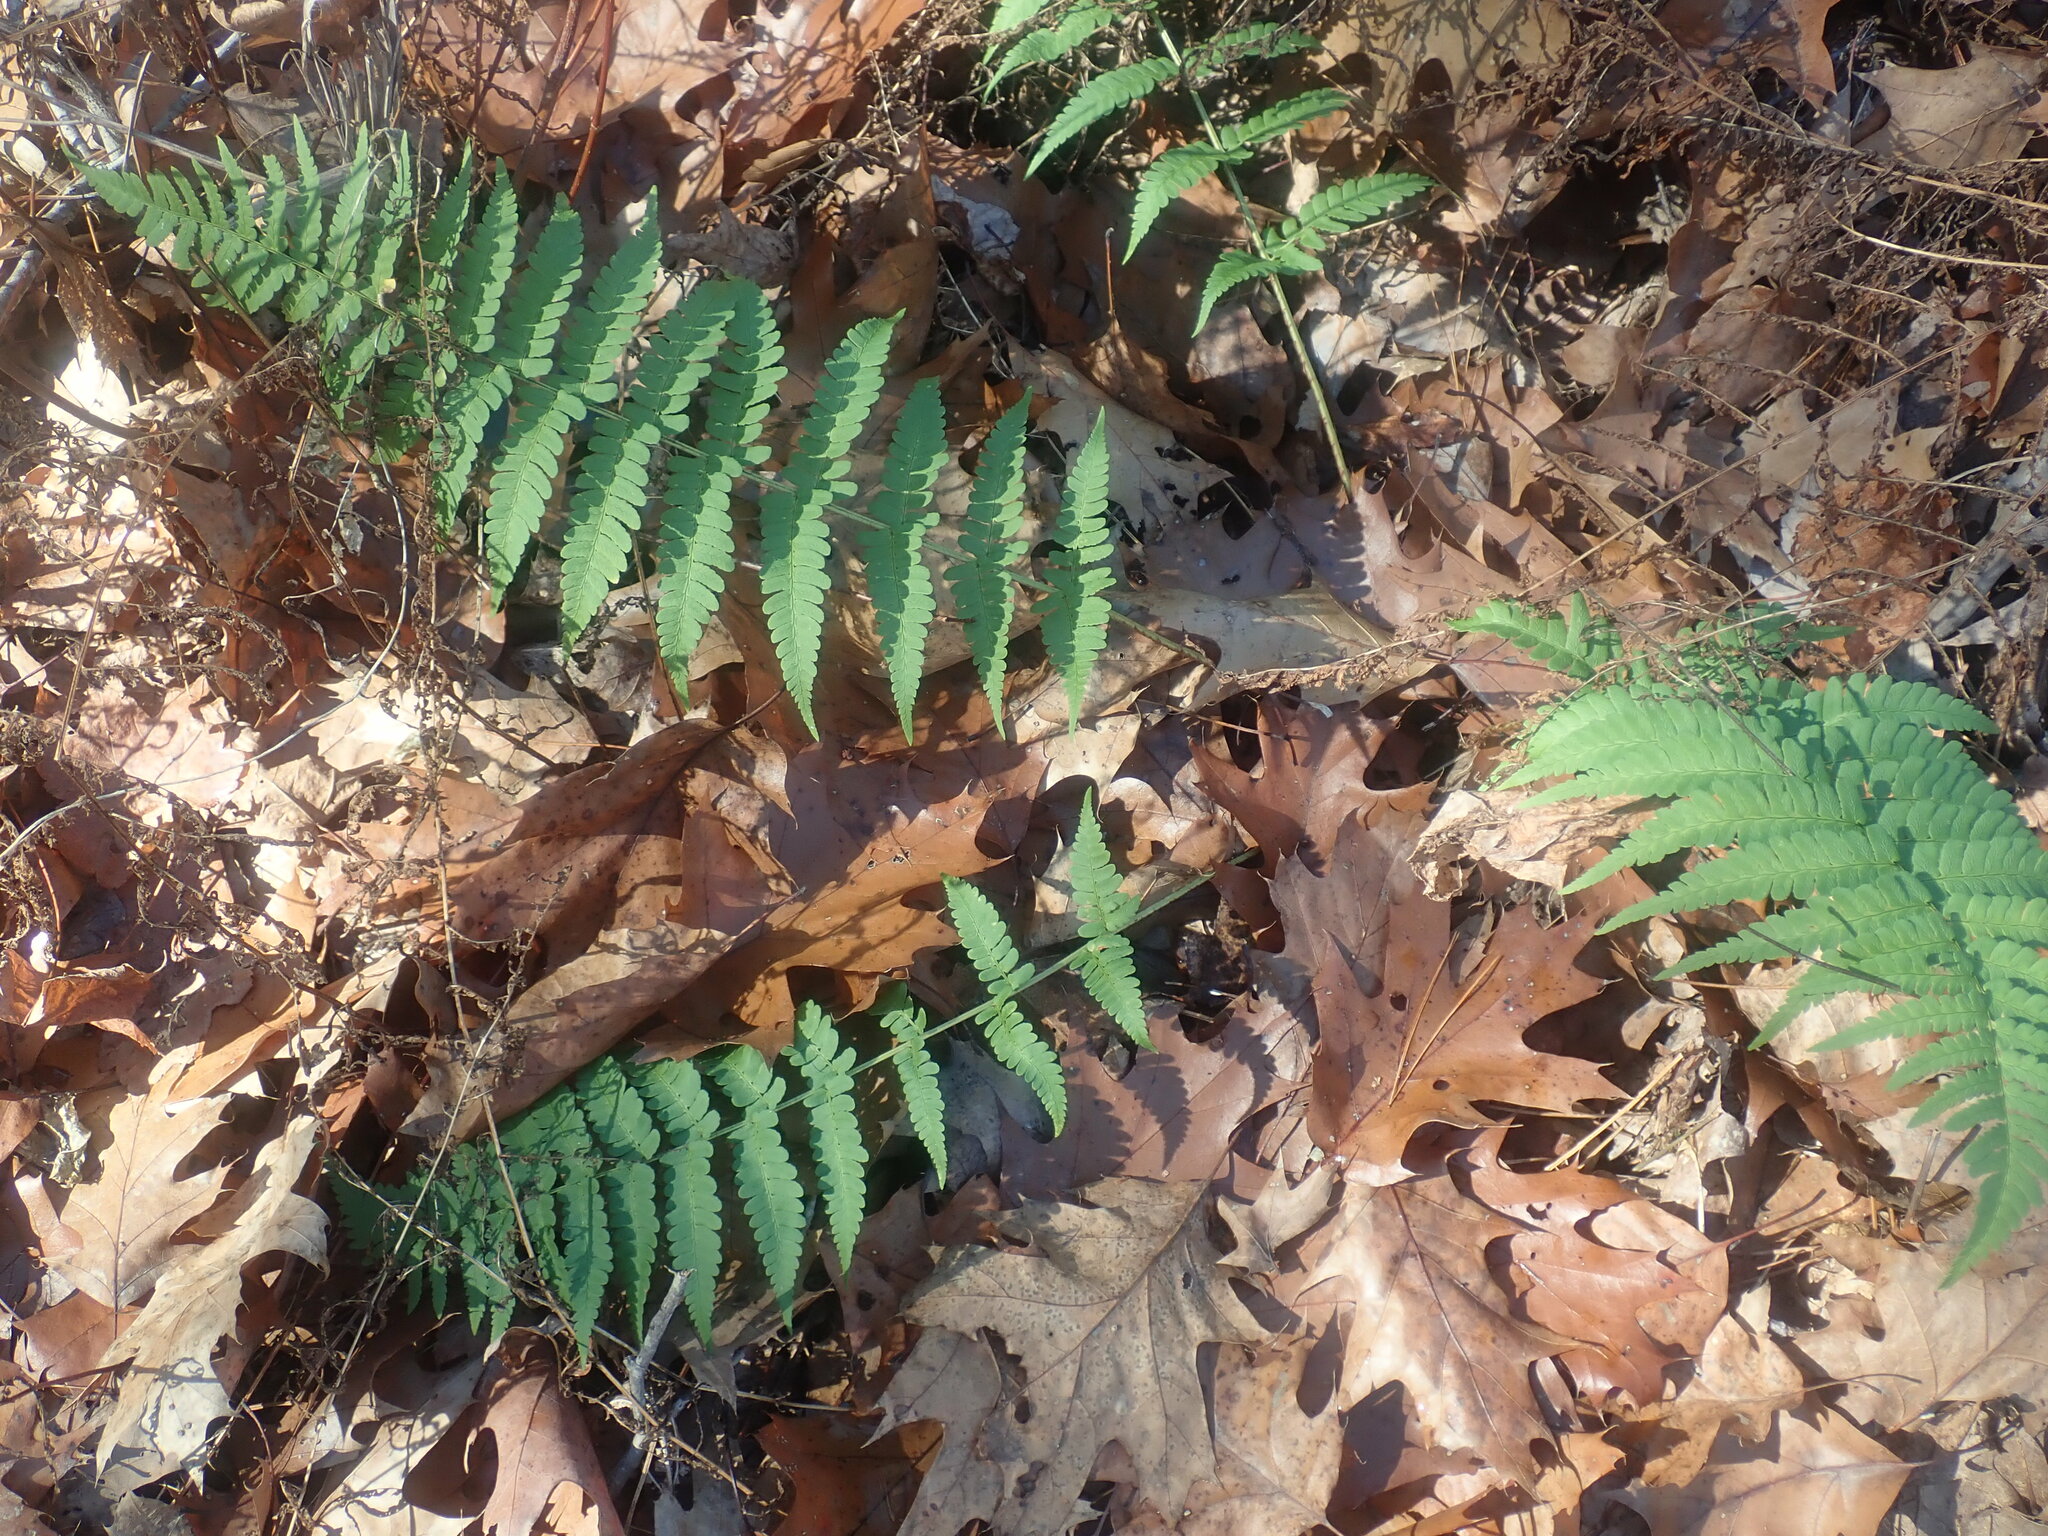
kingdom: Plantae
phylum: Tracheophyta
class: Polypodiopsida
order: Polypodiales
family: Dryopteridaceae
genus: Dryopteris
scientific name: Dryopteris marginalis
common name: Marginal wood fern
